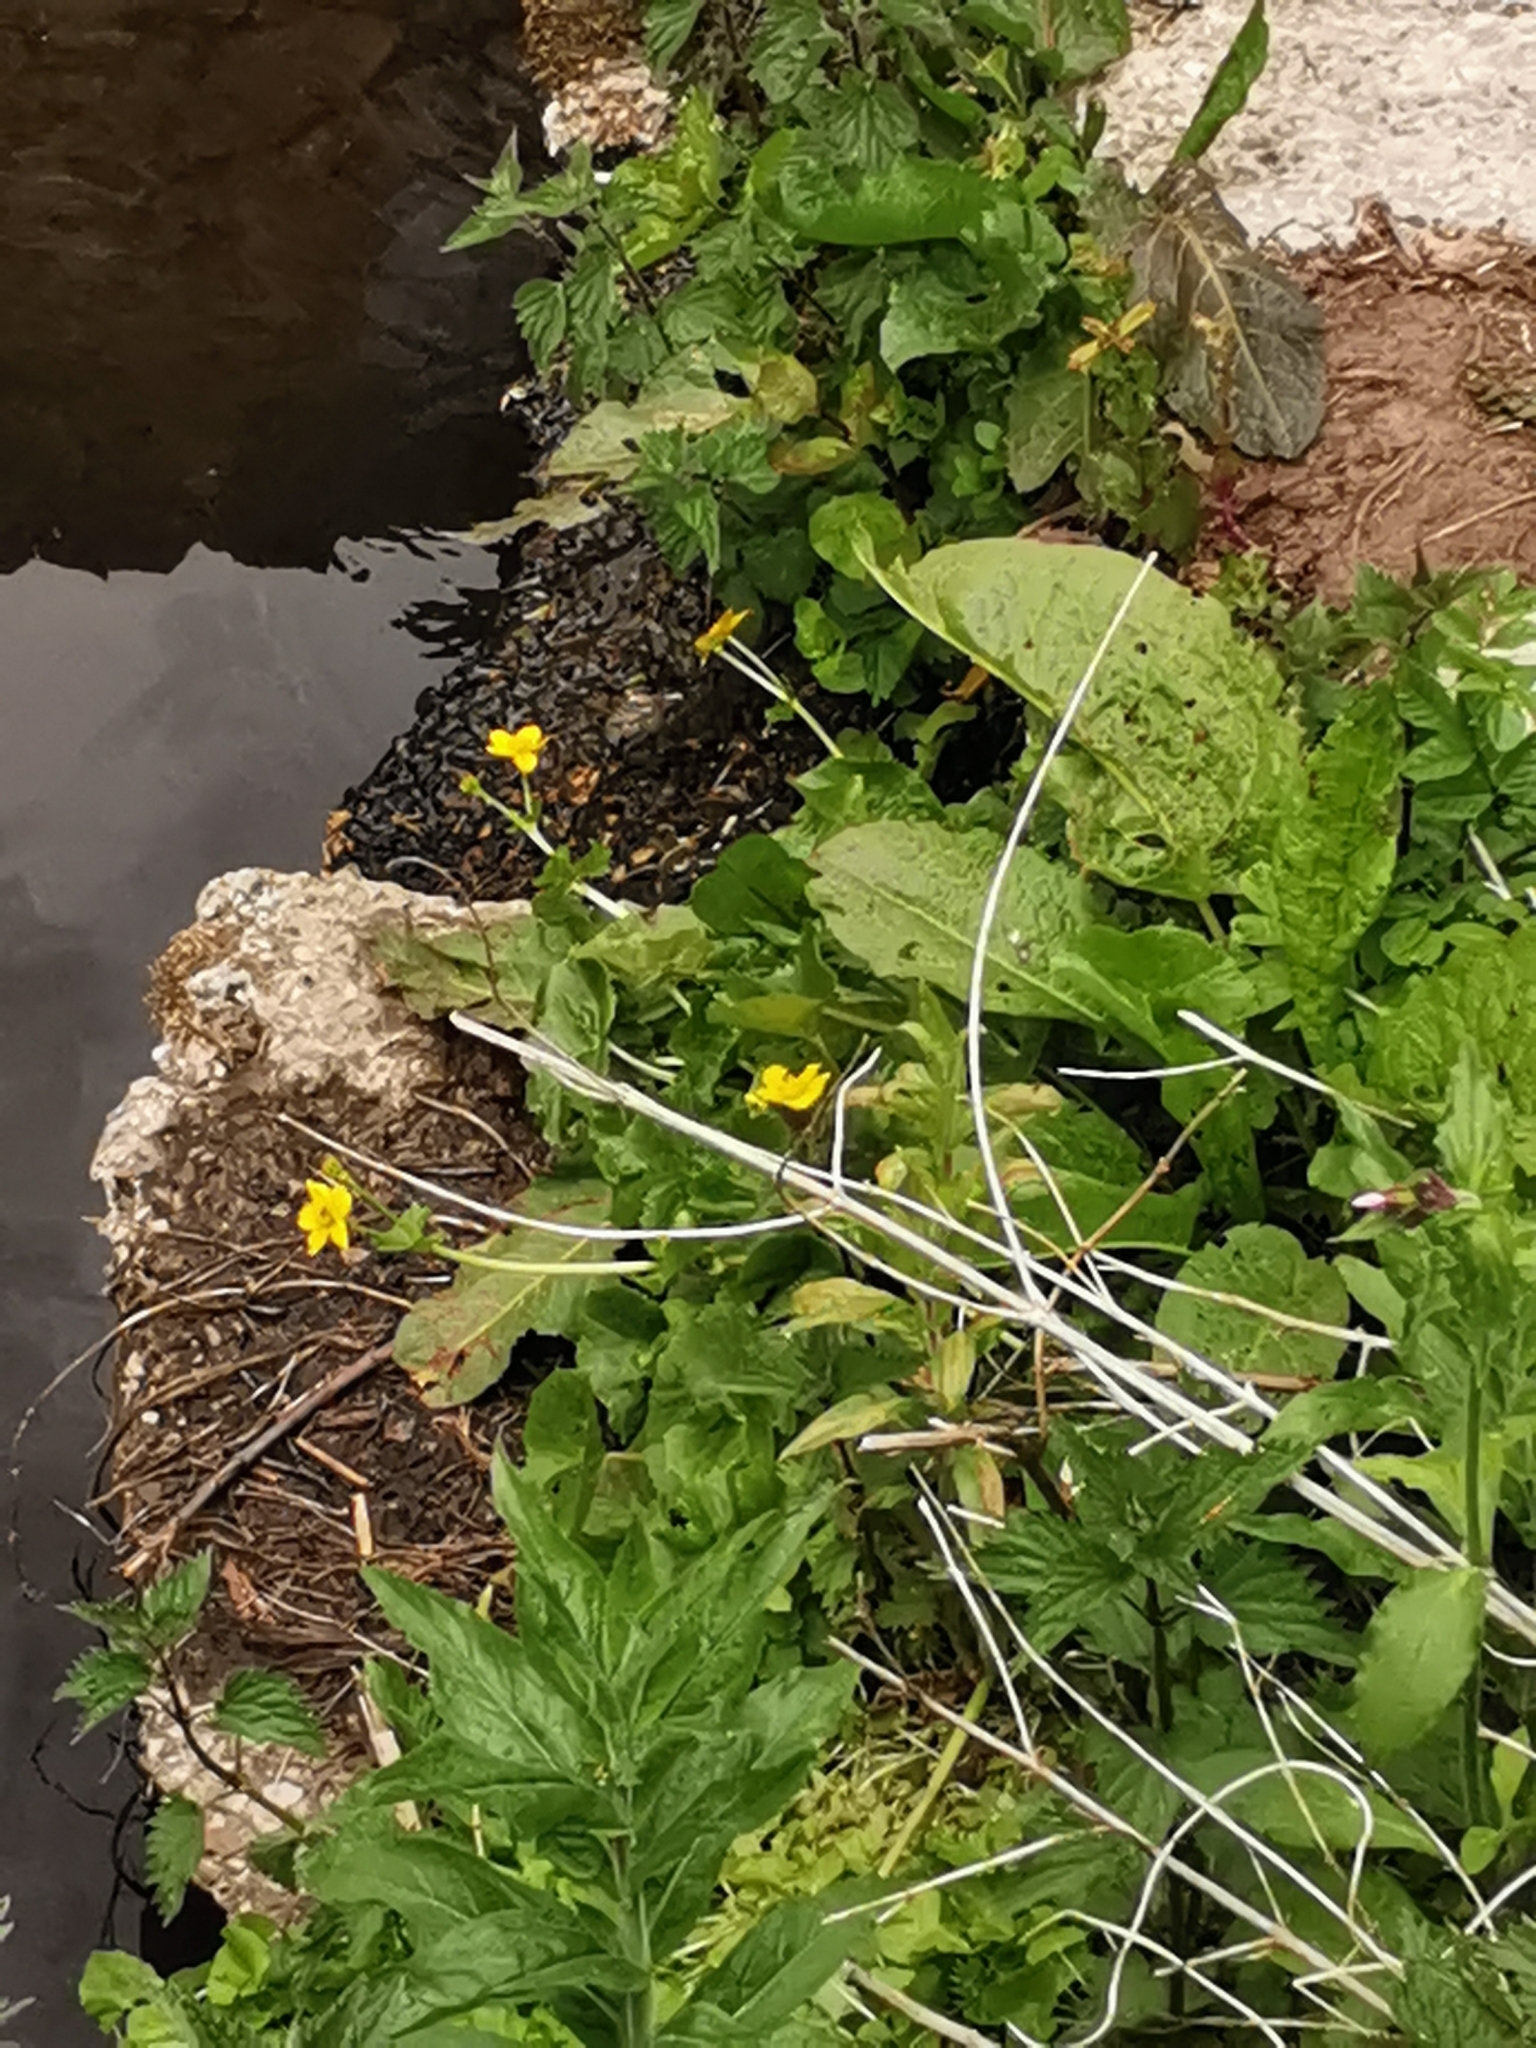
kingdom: Plantae
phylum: Tracheophyta
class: Magnoliopsida
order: Ranunculales
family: Ranunculaceae
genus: Caltha
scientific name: Caltha palustris
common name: Marsh marigold
